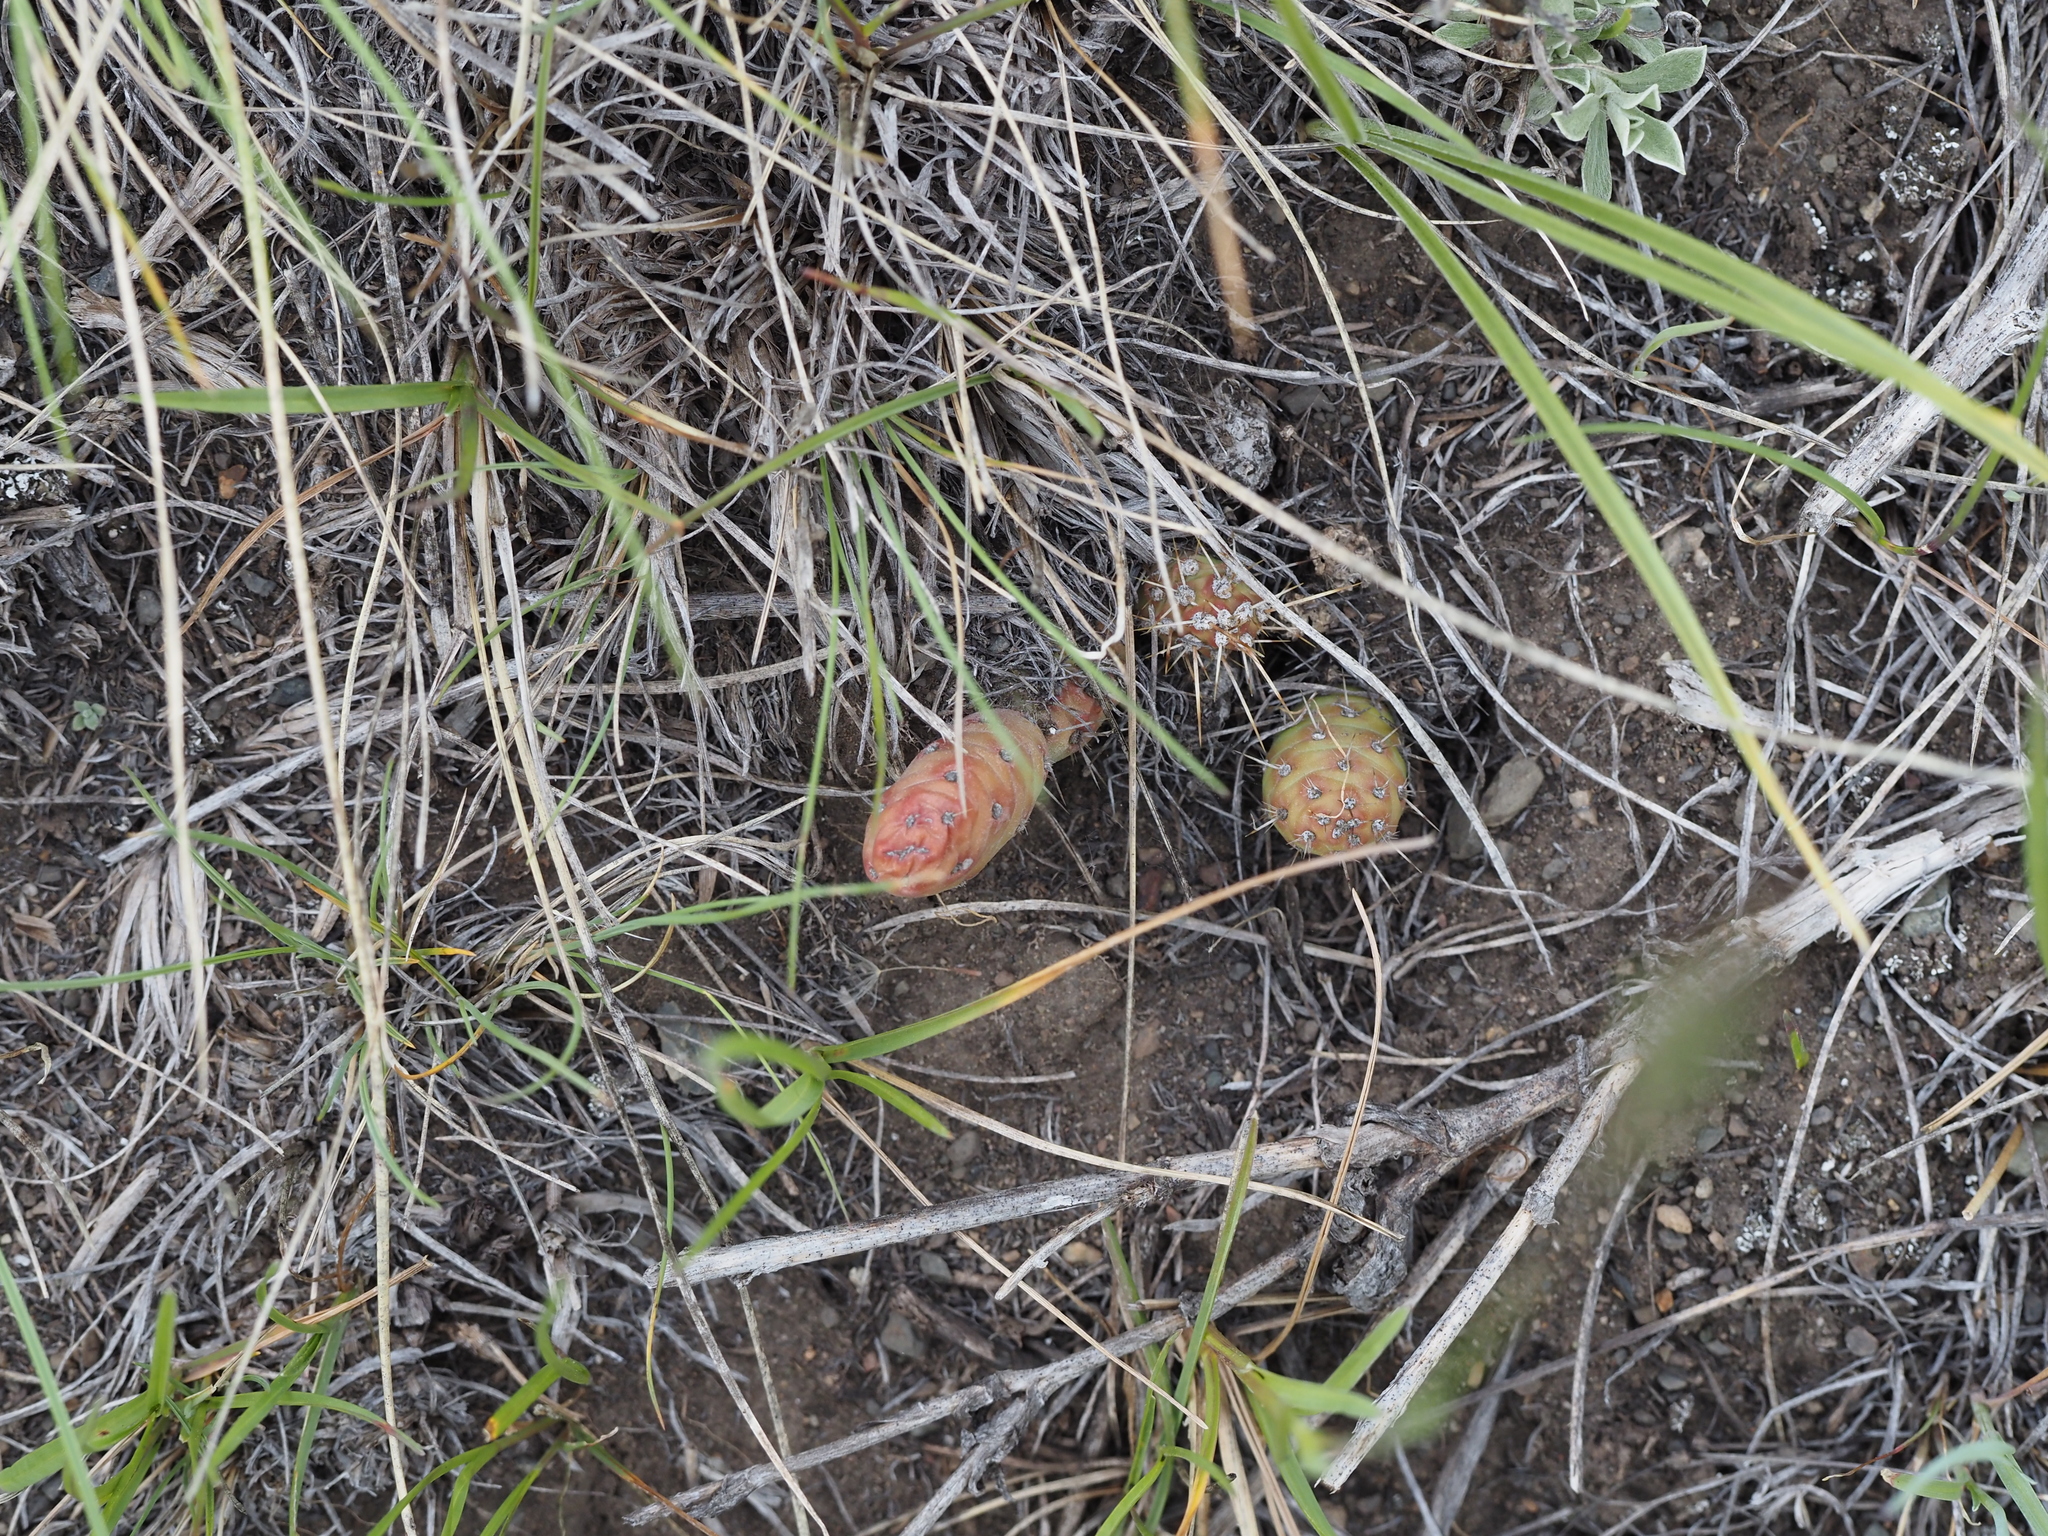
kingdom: Plantae
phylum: Tracheophyta
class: Magnoliopsida
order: Caryophyllales
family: Cactaceae
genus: Opuntia
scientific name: Opuntia fragilis
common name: Brittle cactus
